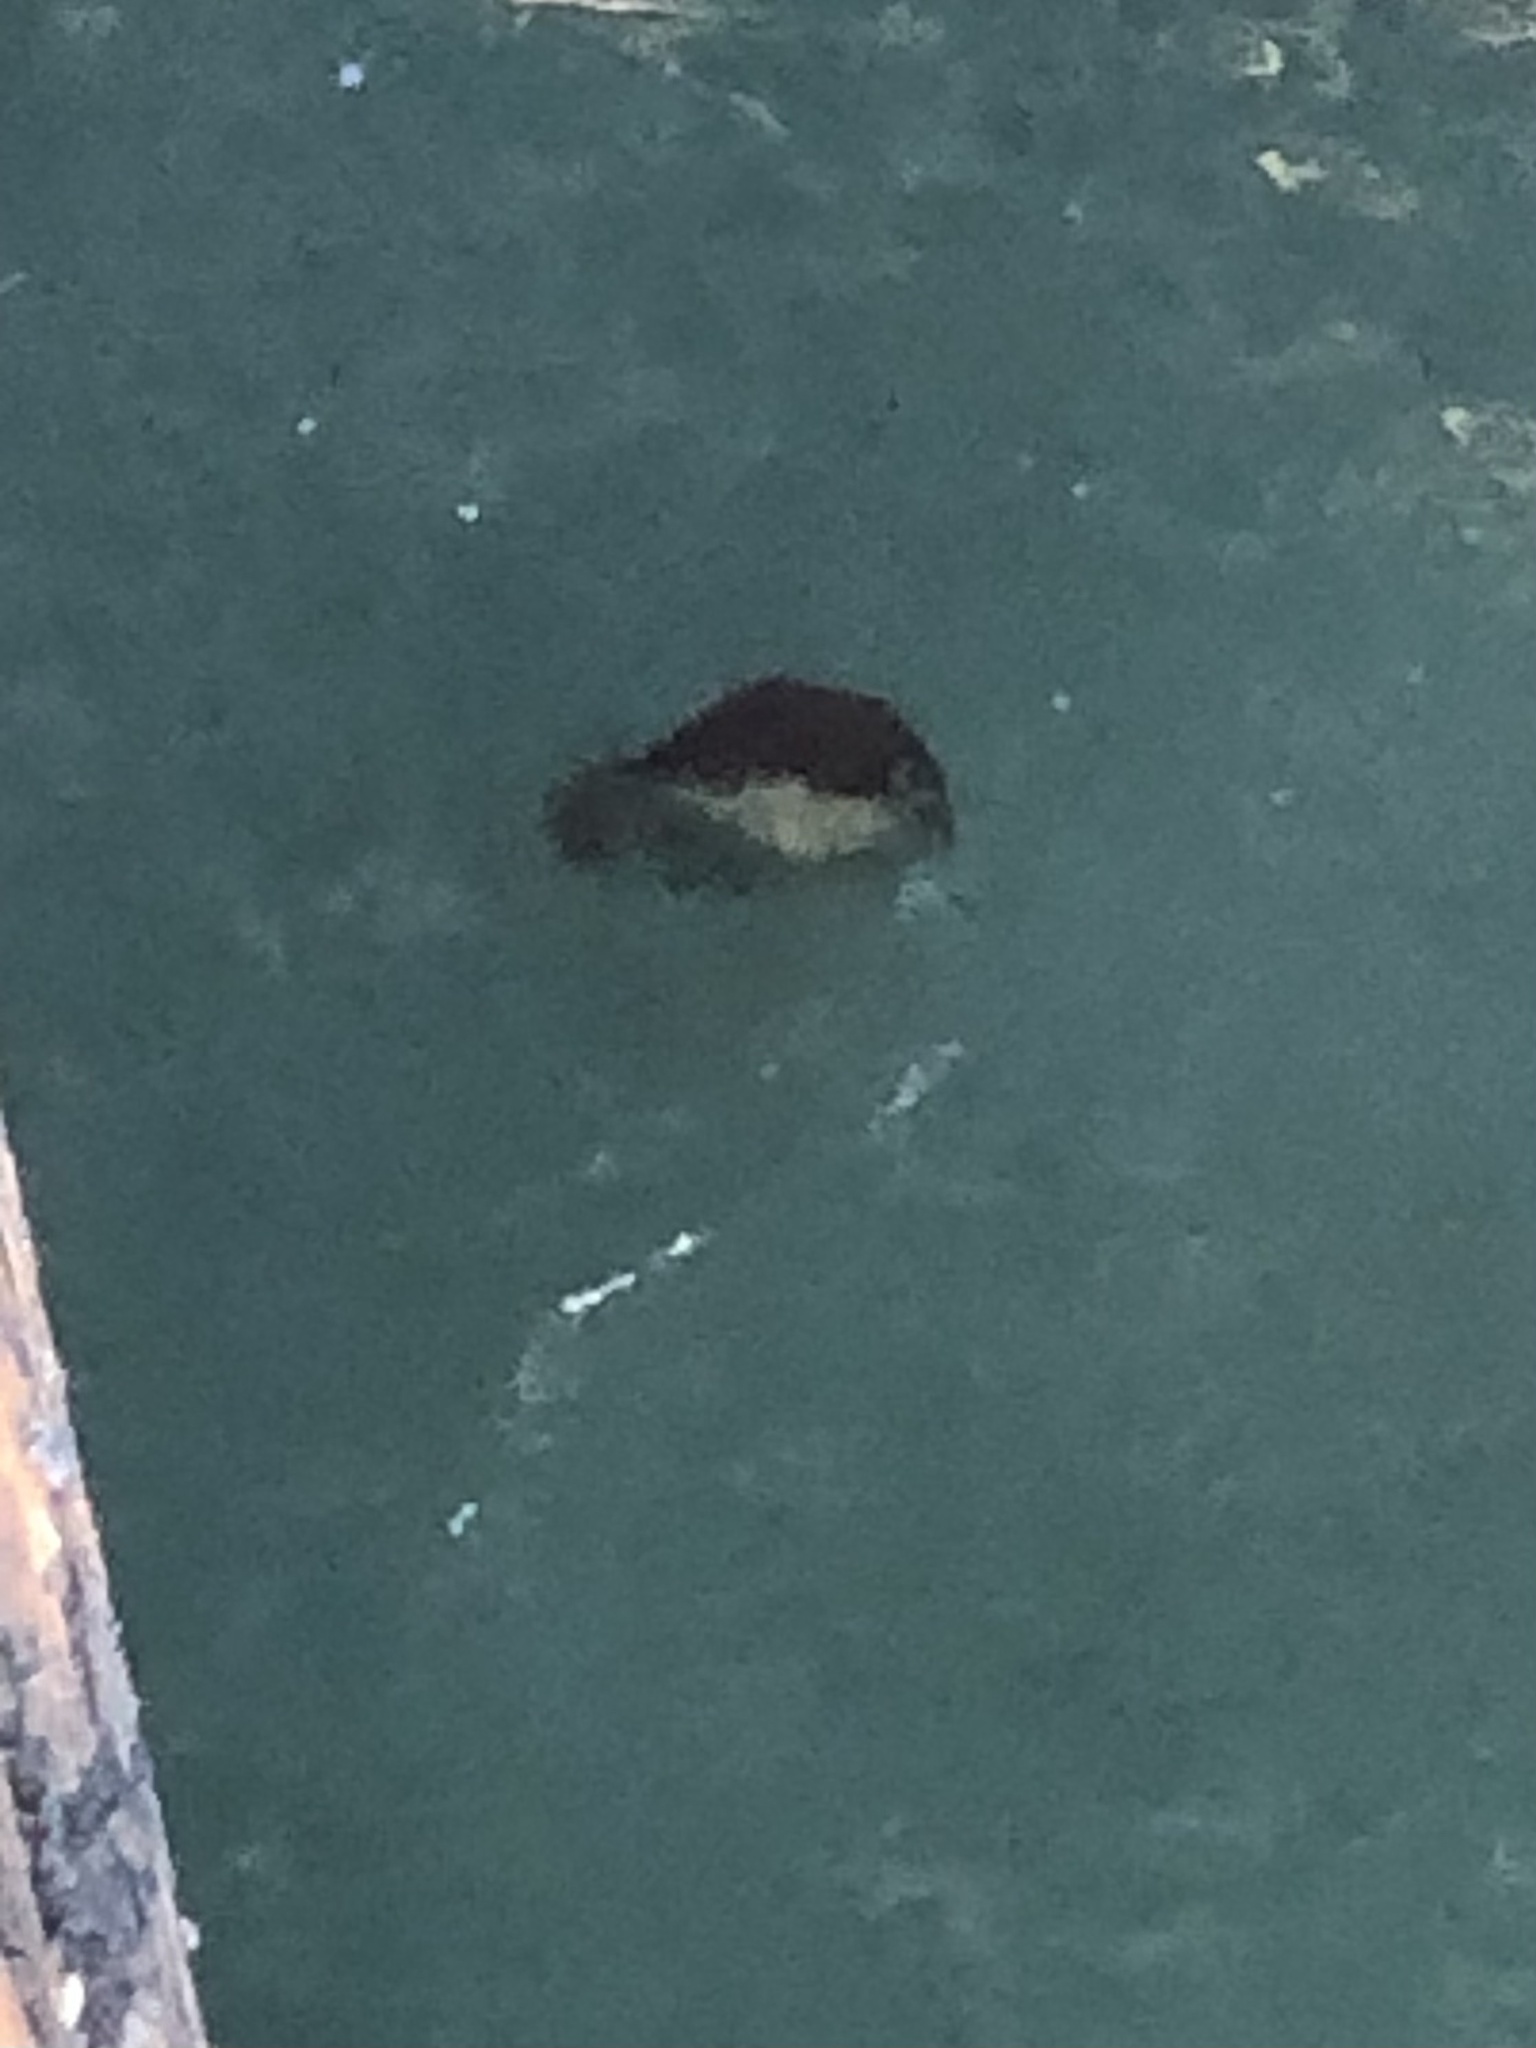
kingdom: Animalia
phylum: Cnidaria
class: Scyphozoa
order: Semaeostomeae
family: Pelagiidae
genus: Chrysaora
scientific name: Chrysaora fuscescens
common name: Sea nettle
